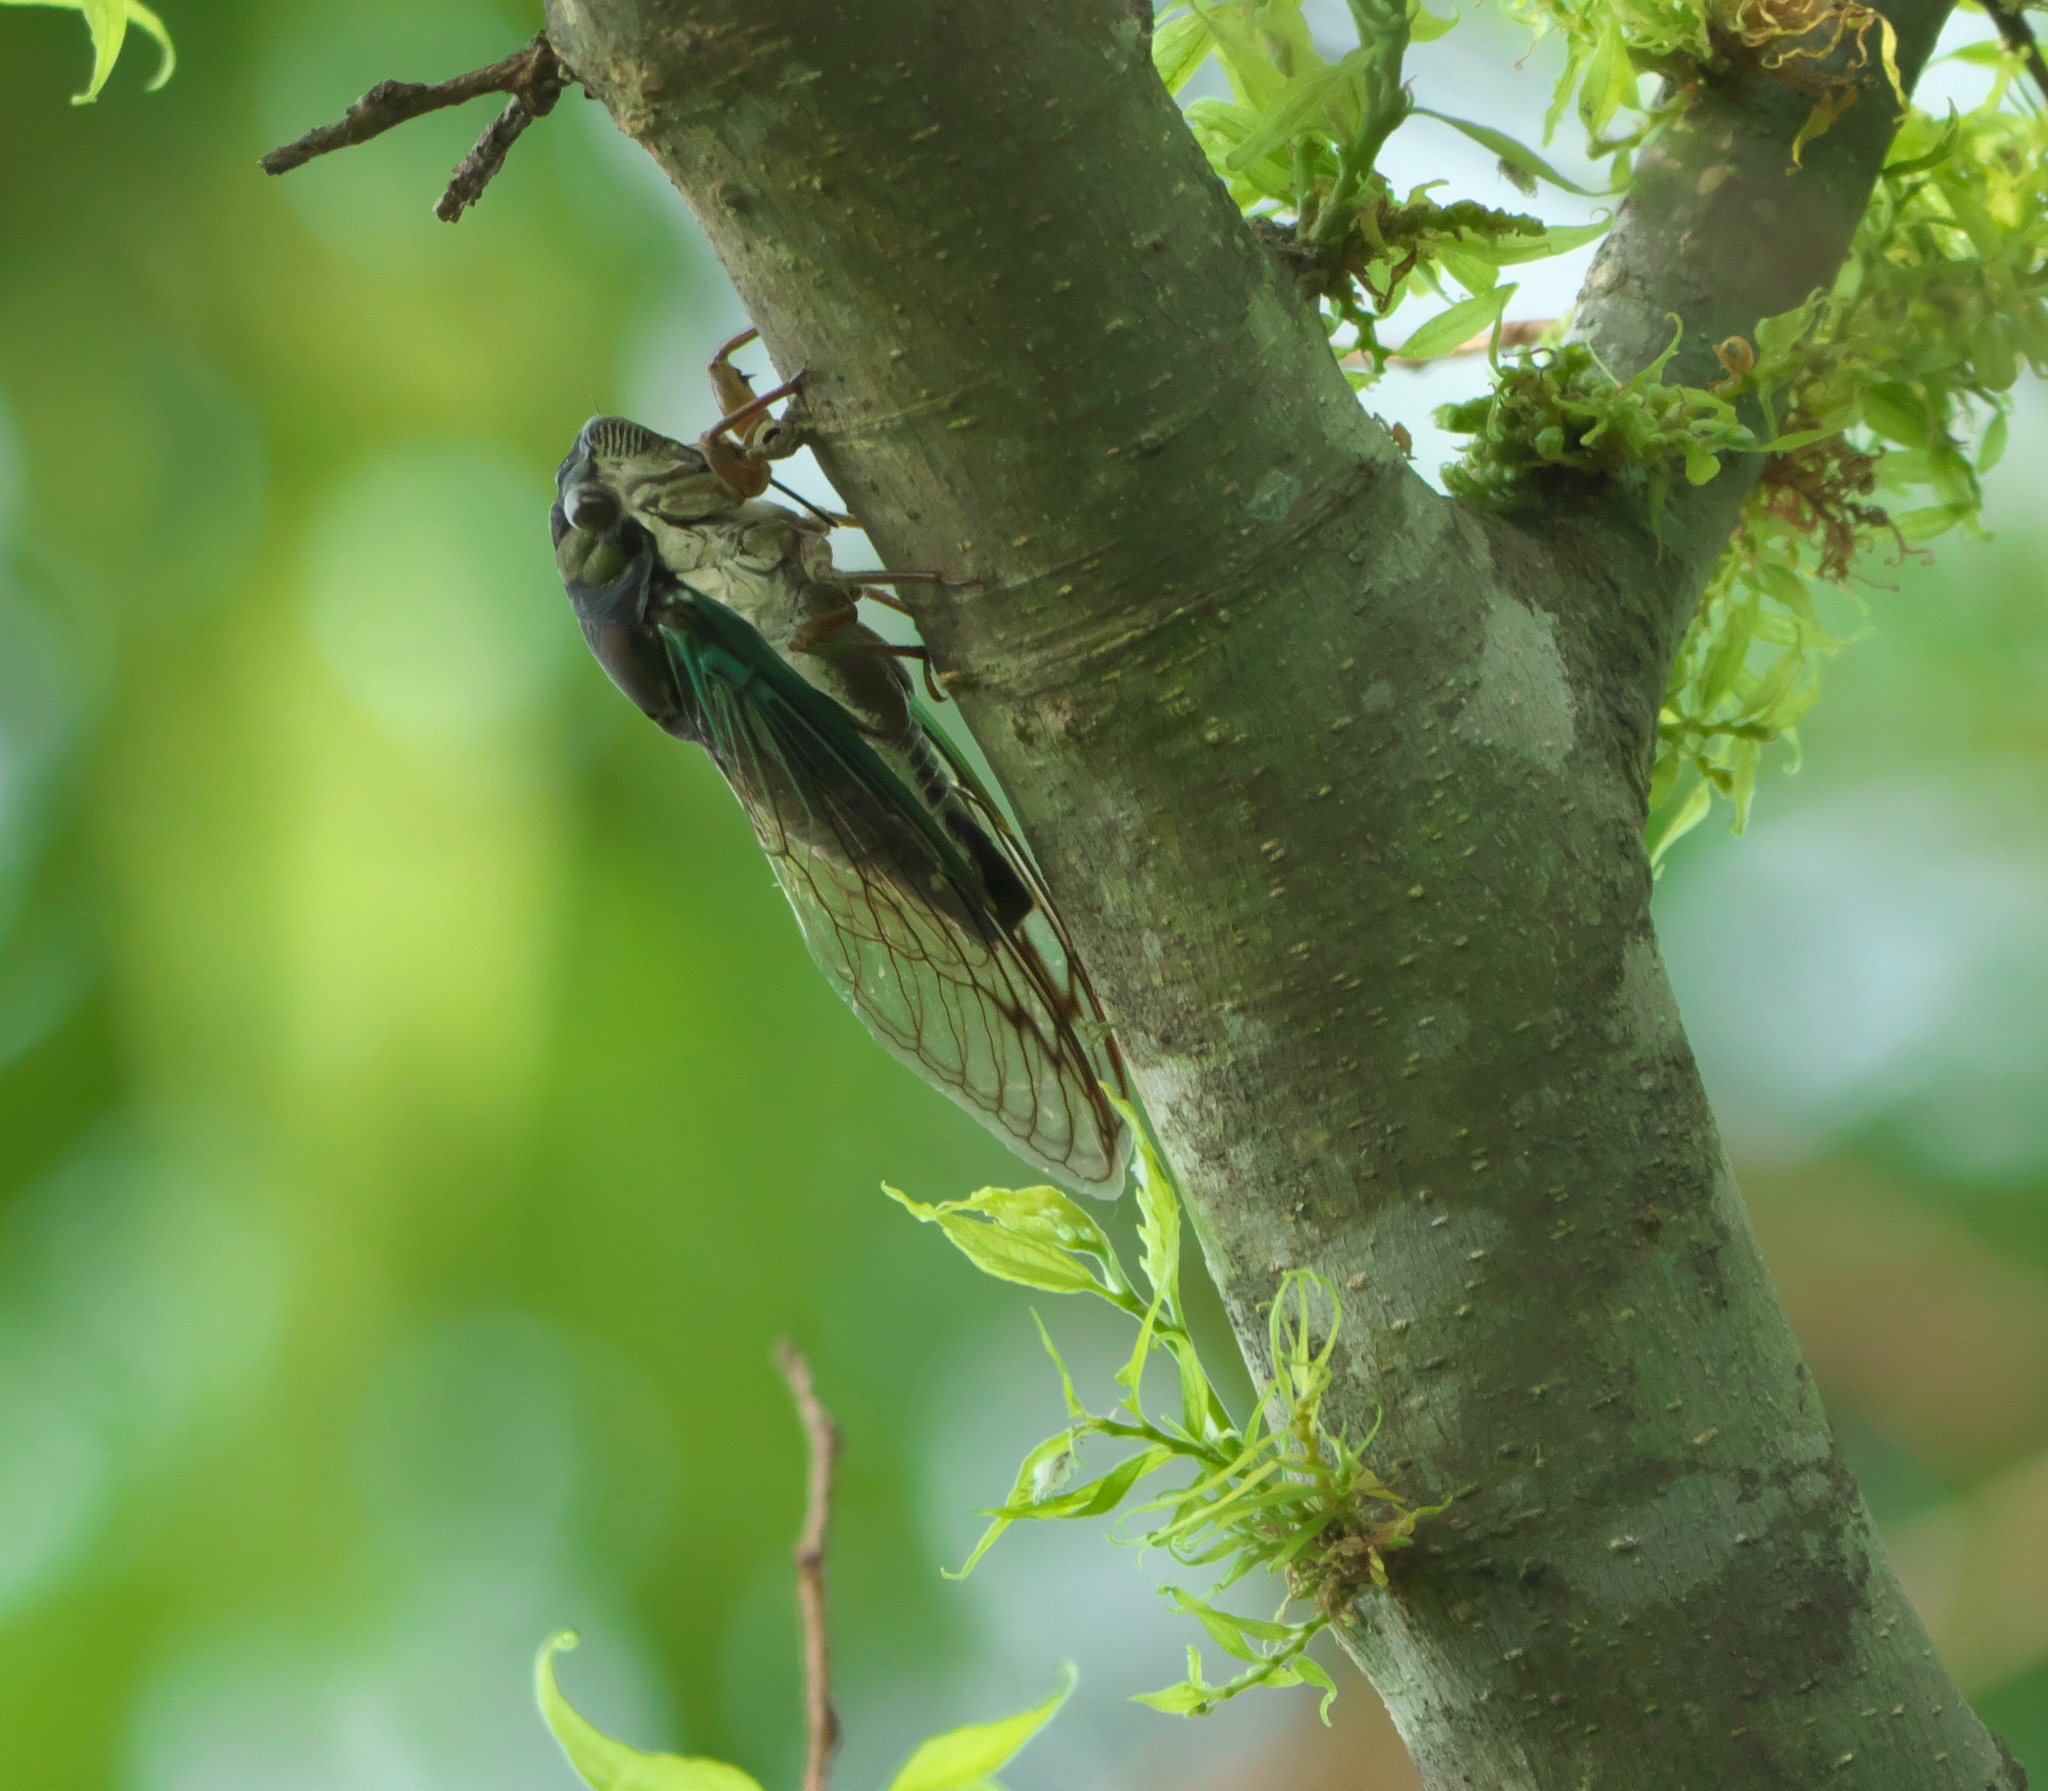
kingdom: Animalia
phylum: Arthropoda
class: Insecta
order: Hemiptera
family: Cicadidae
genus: Neotibicen
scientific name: Neotibicen lyricen
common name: Lyric cicada
